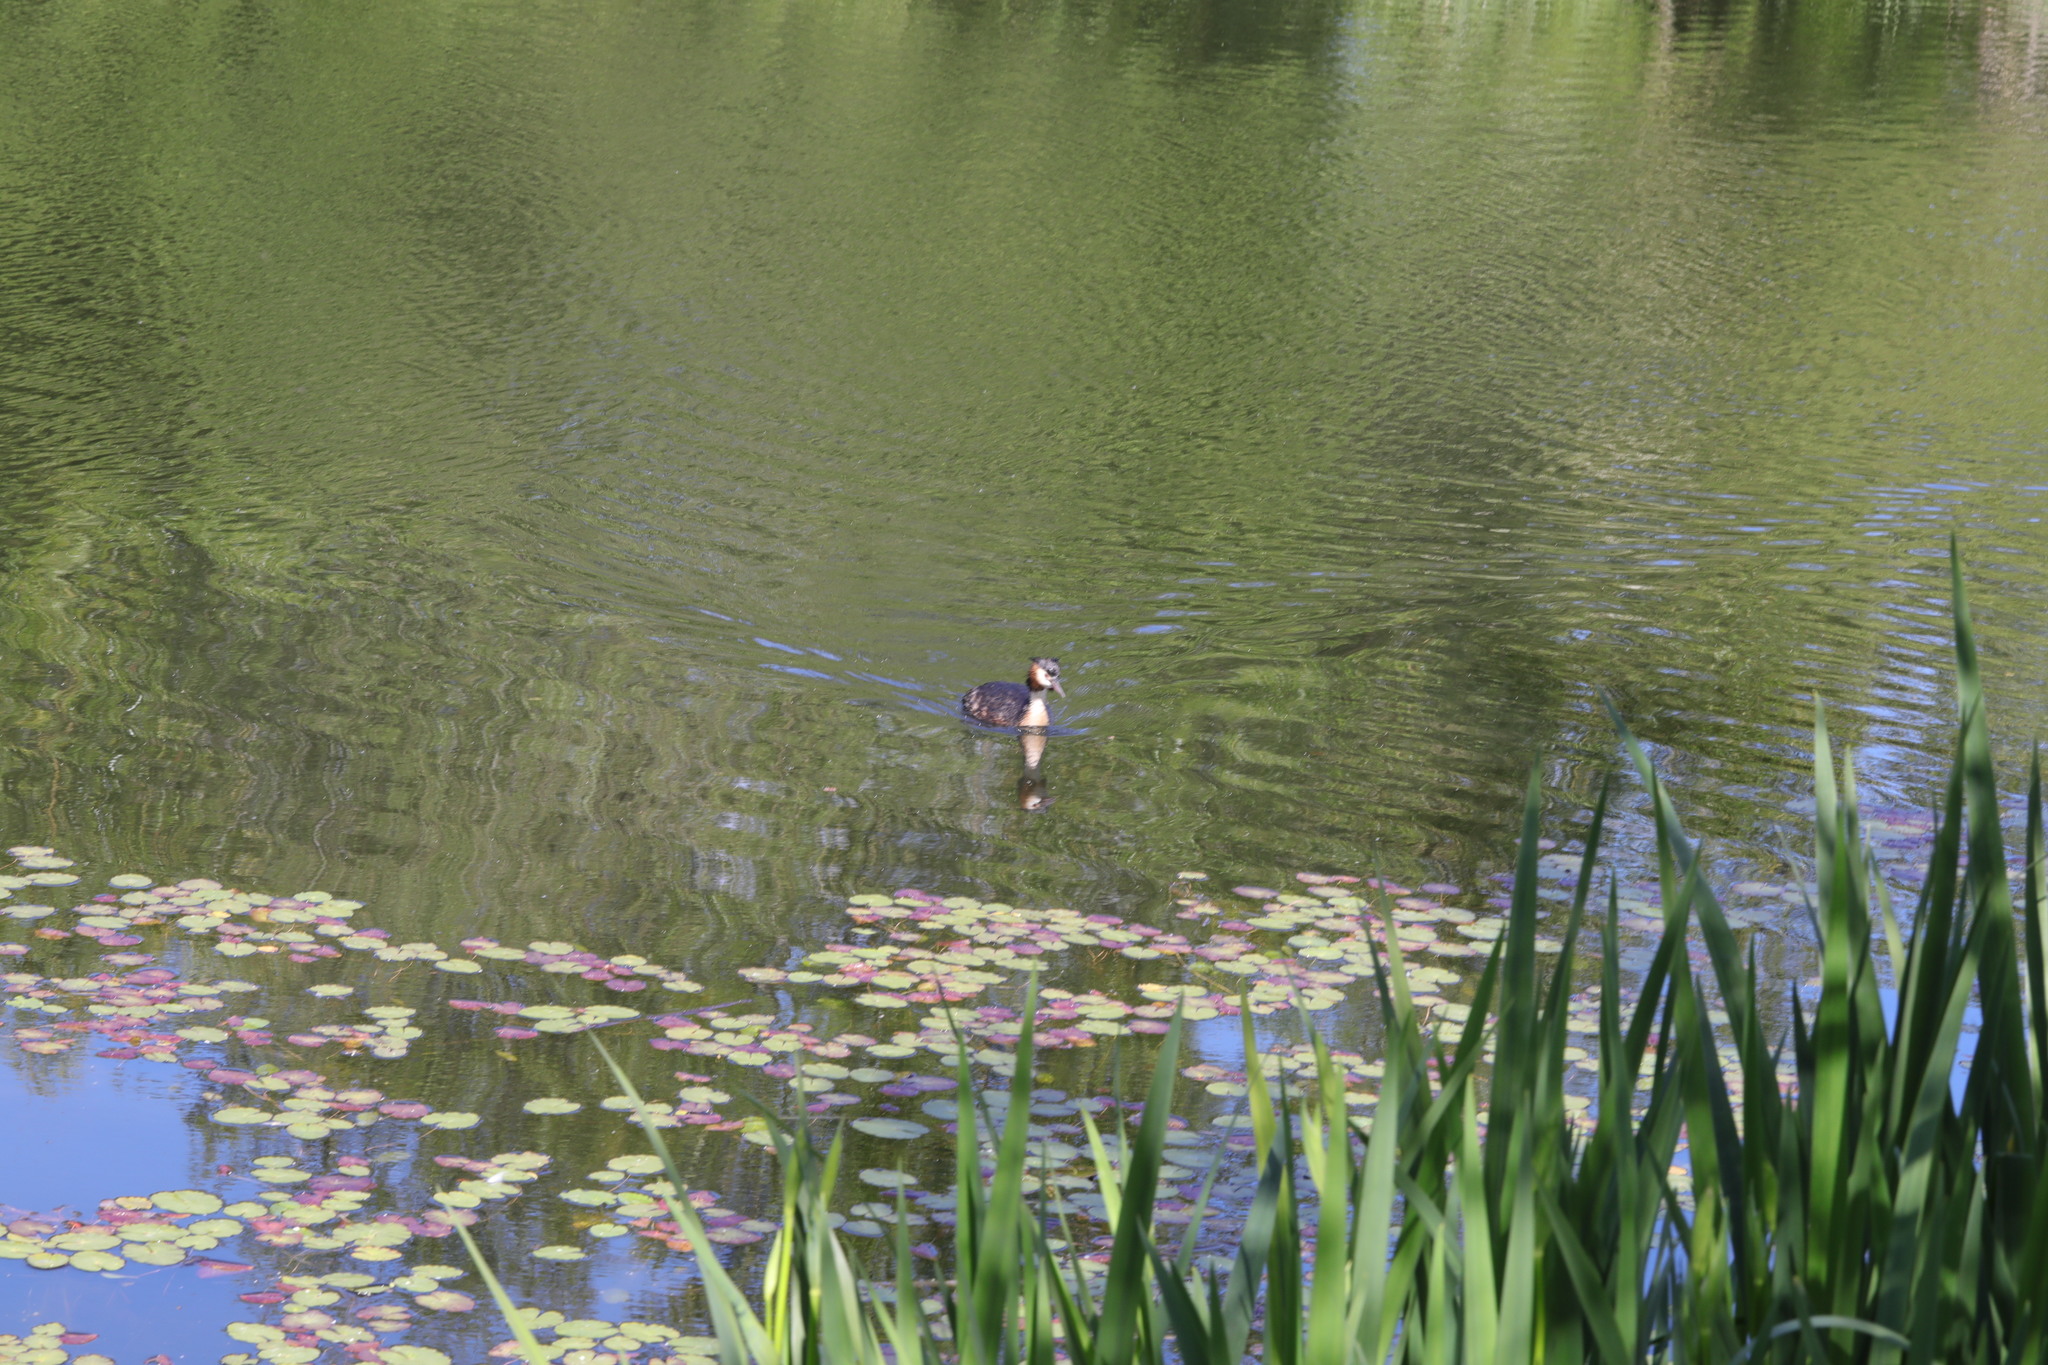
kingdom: Animalia
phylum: Chordata
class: Aves
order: Podicipediformes
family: Podicipedidae
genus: Podiceps
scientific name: Podiceps cristatus
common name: Great crested grebe
